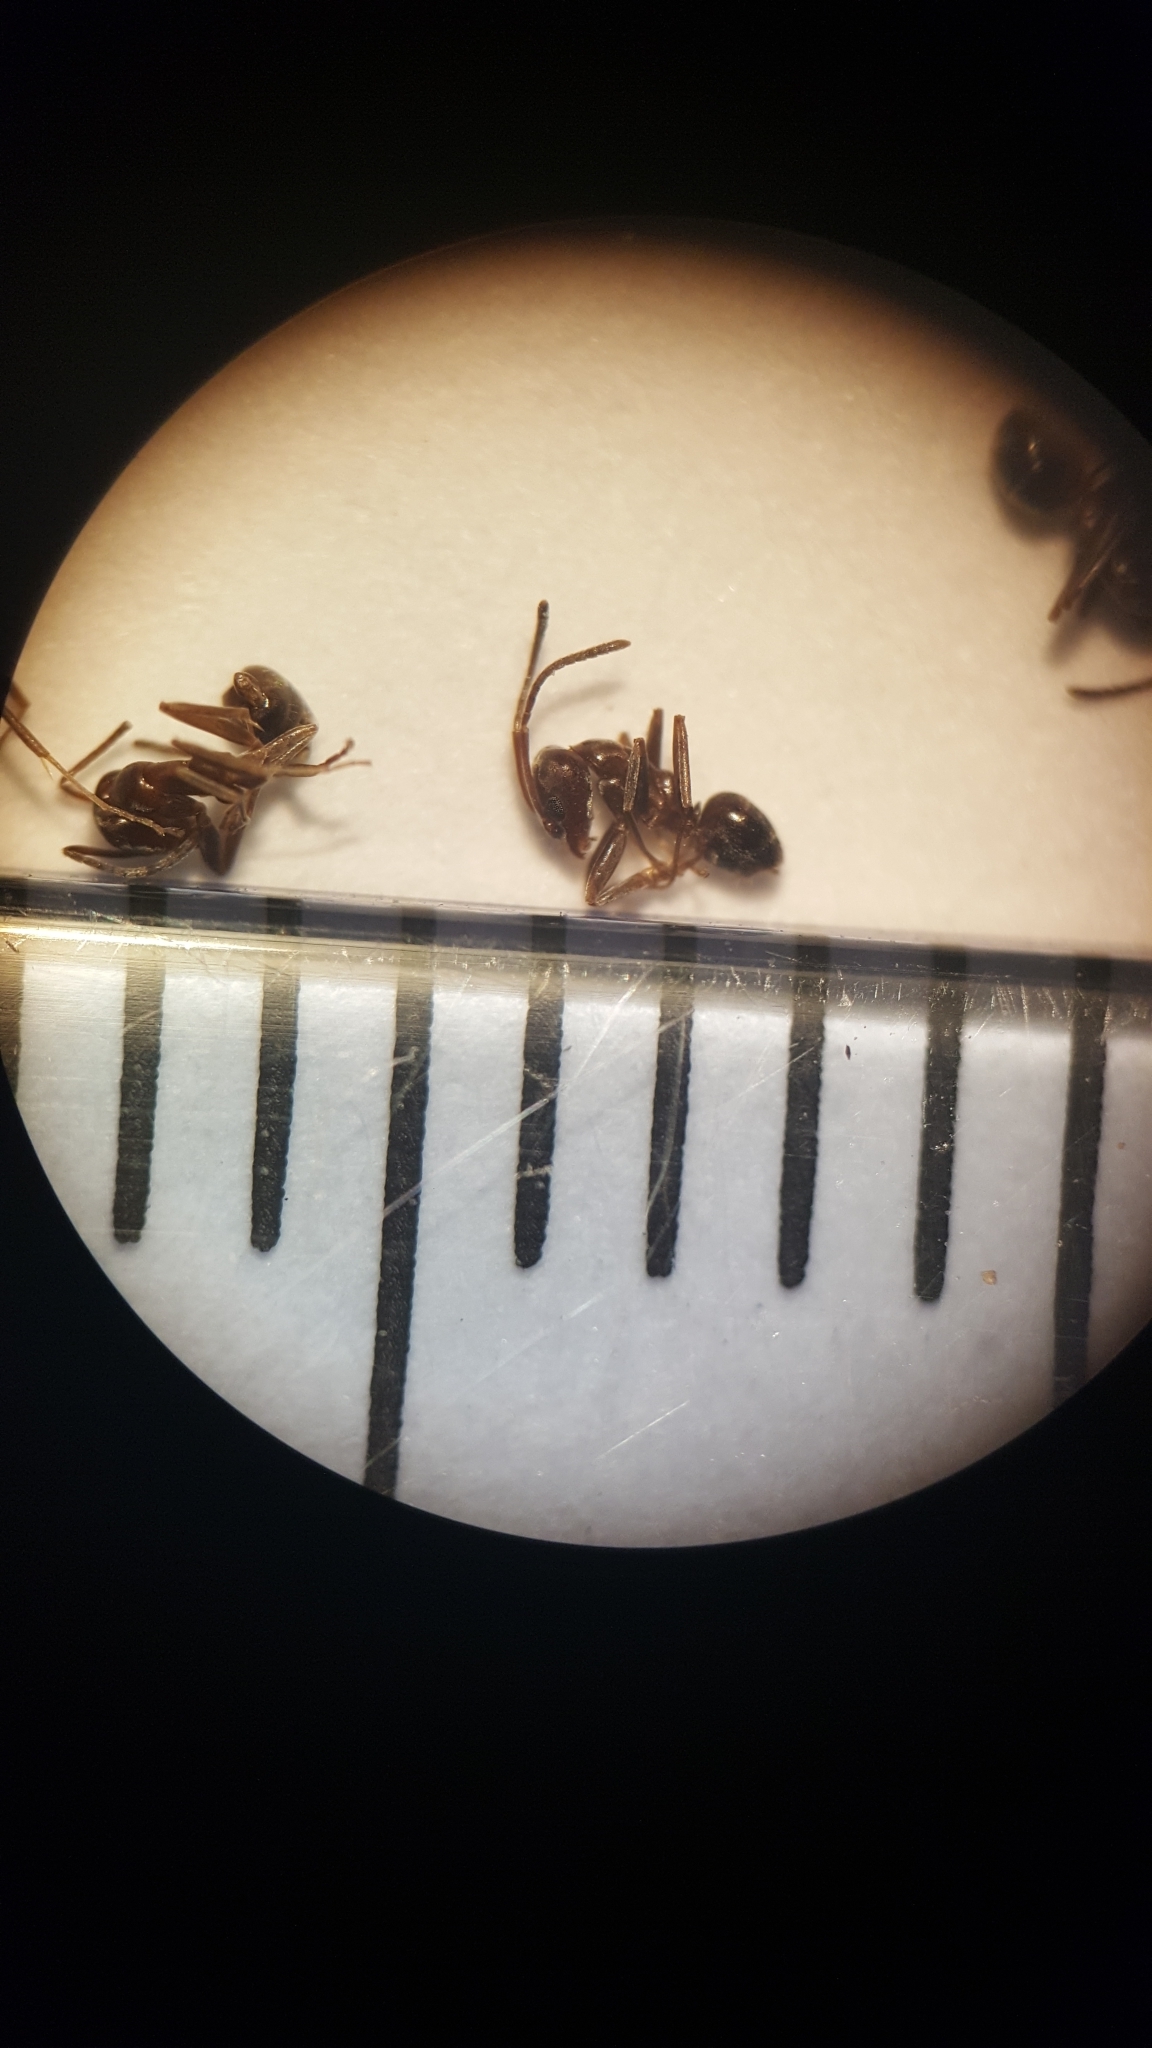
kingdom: Animalia
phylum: Arthropoda
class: Insecta
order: Hymenoptera
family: Formicidae
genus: Linepithema
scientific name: Linepithema humile
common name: Argentine ant
